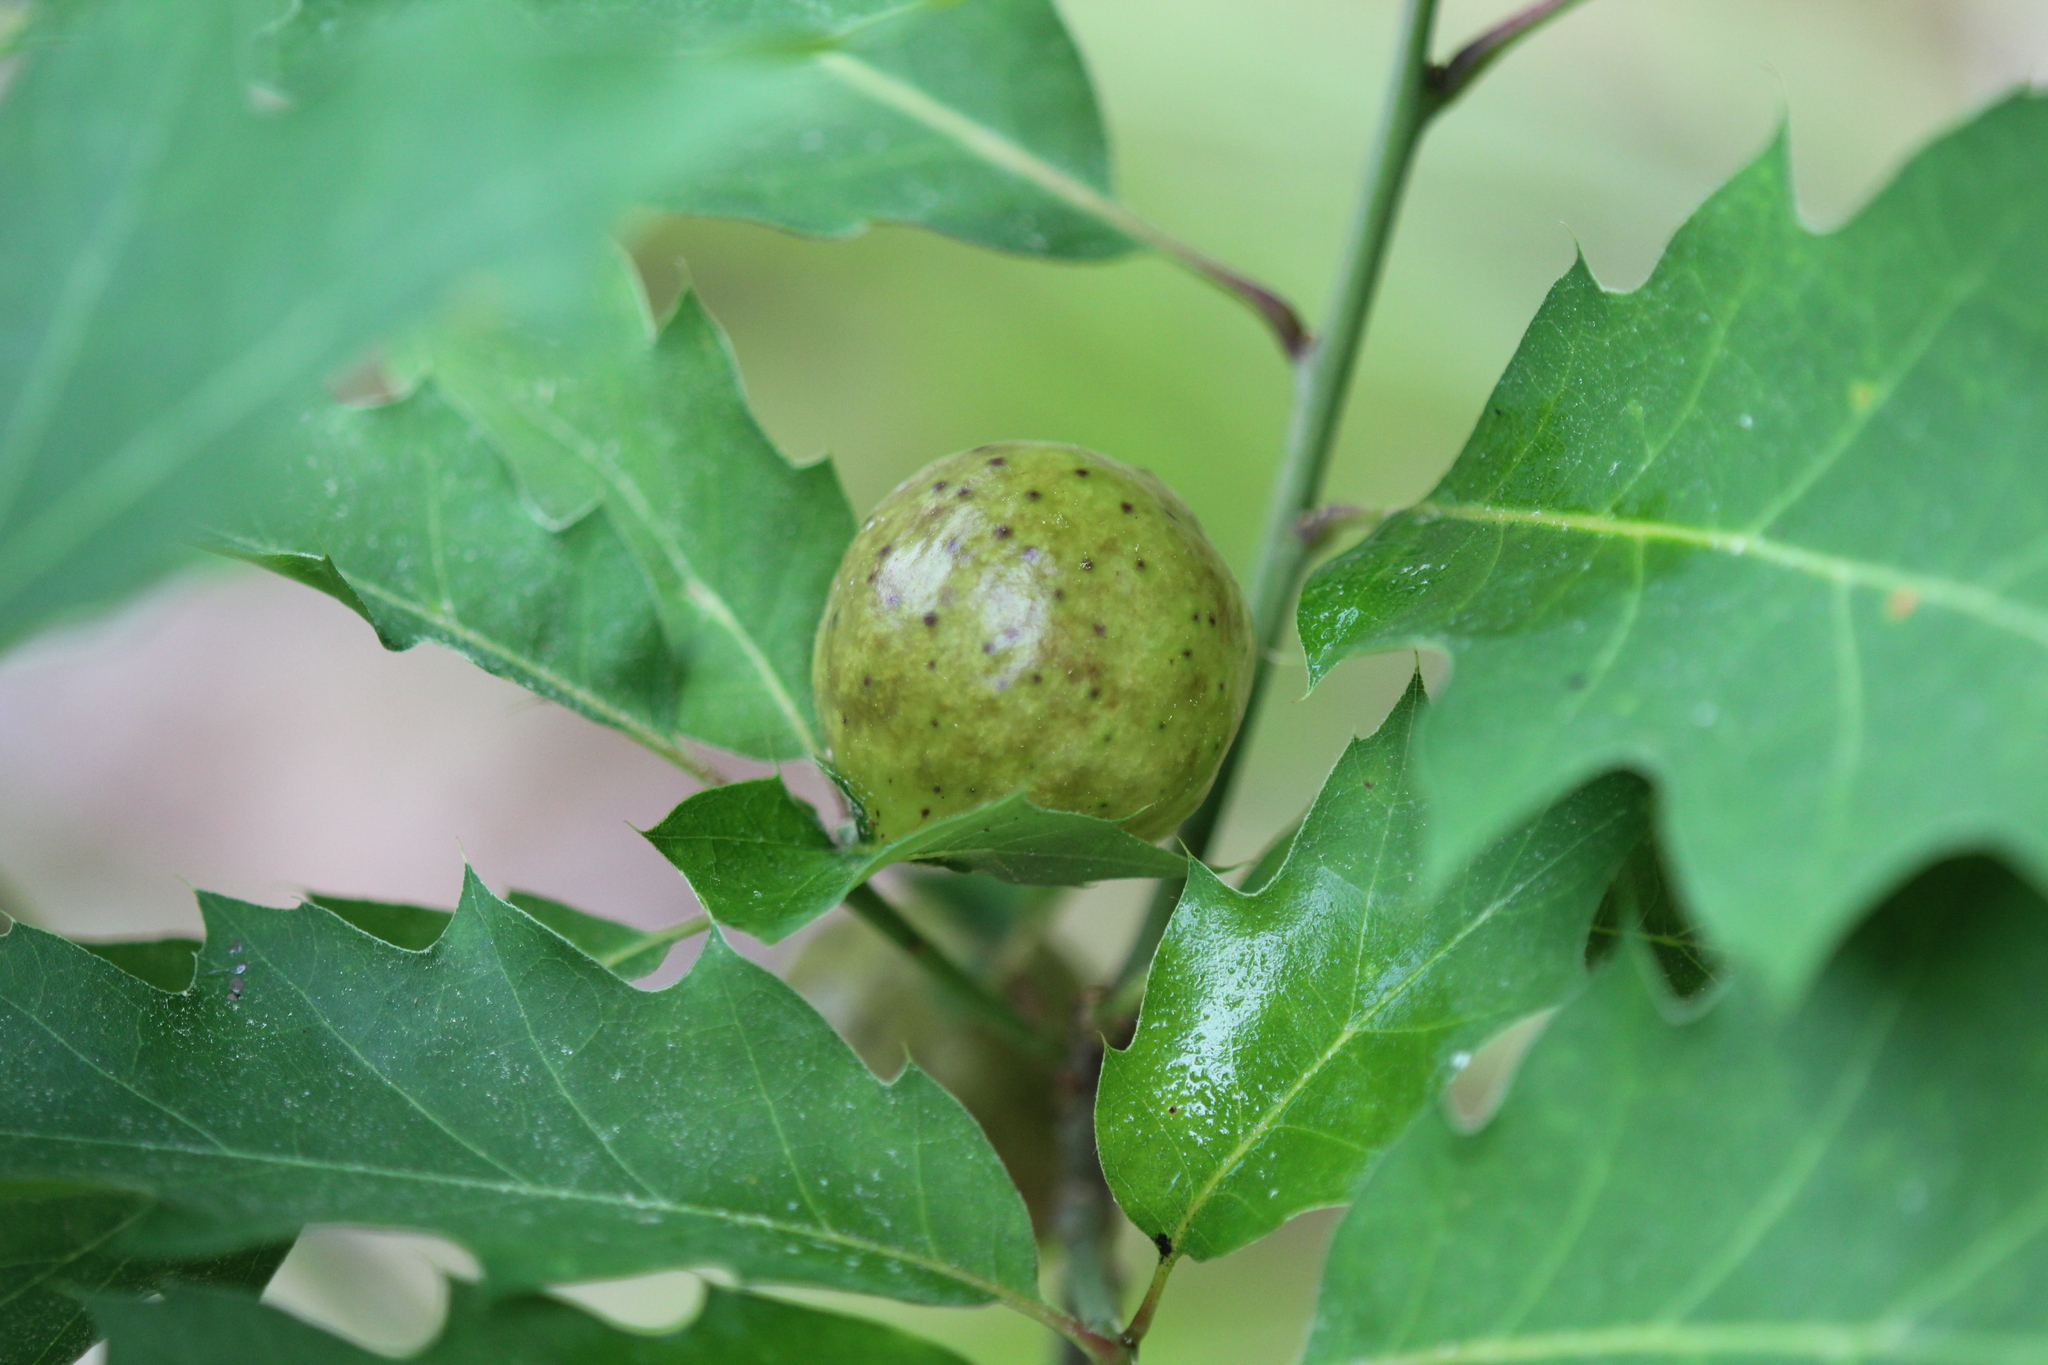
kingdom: Animalia
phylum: Arthropoda
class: Insecta
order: Hymenoptera
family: Cynipidae
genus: Amphibolips
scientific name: Amphibolips
